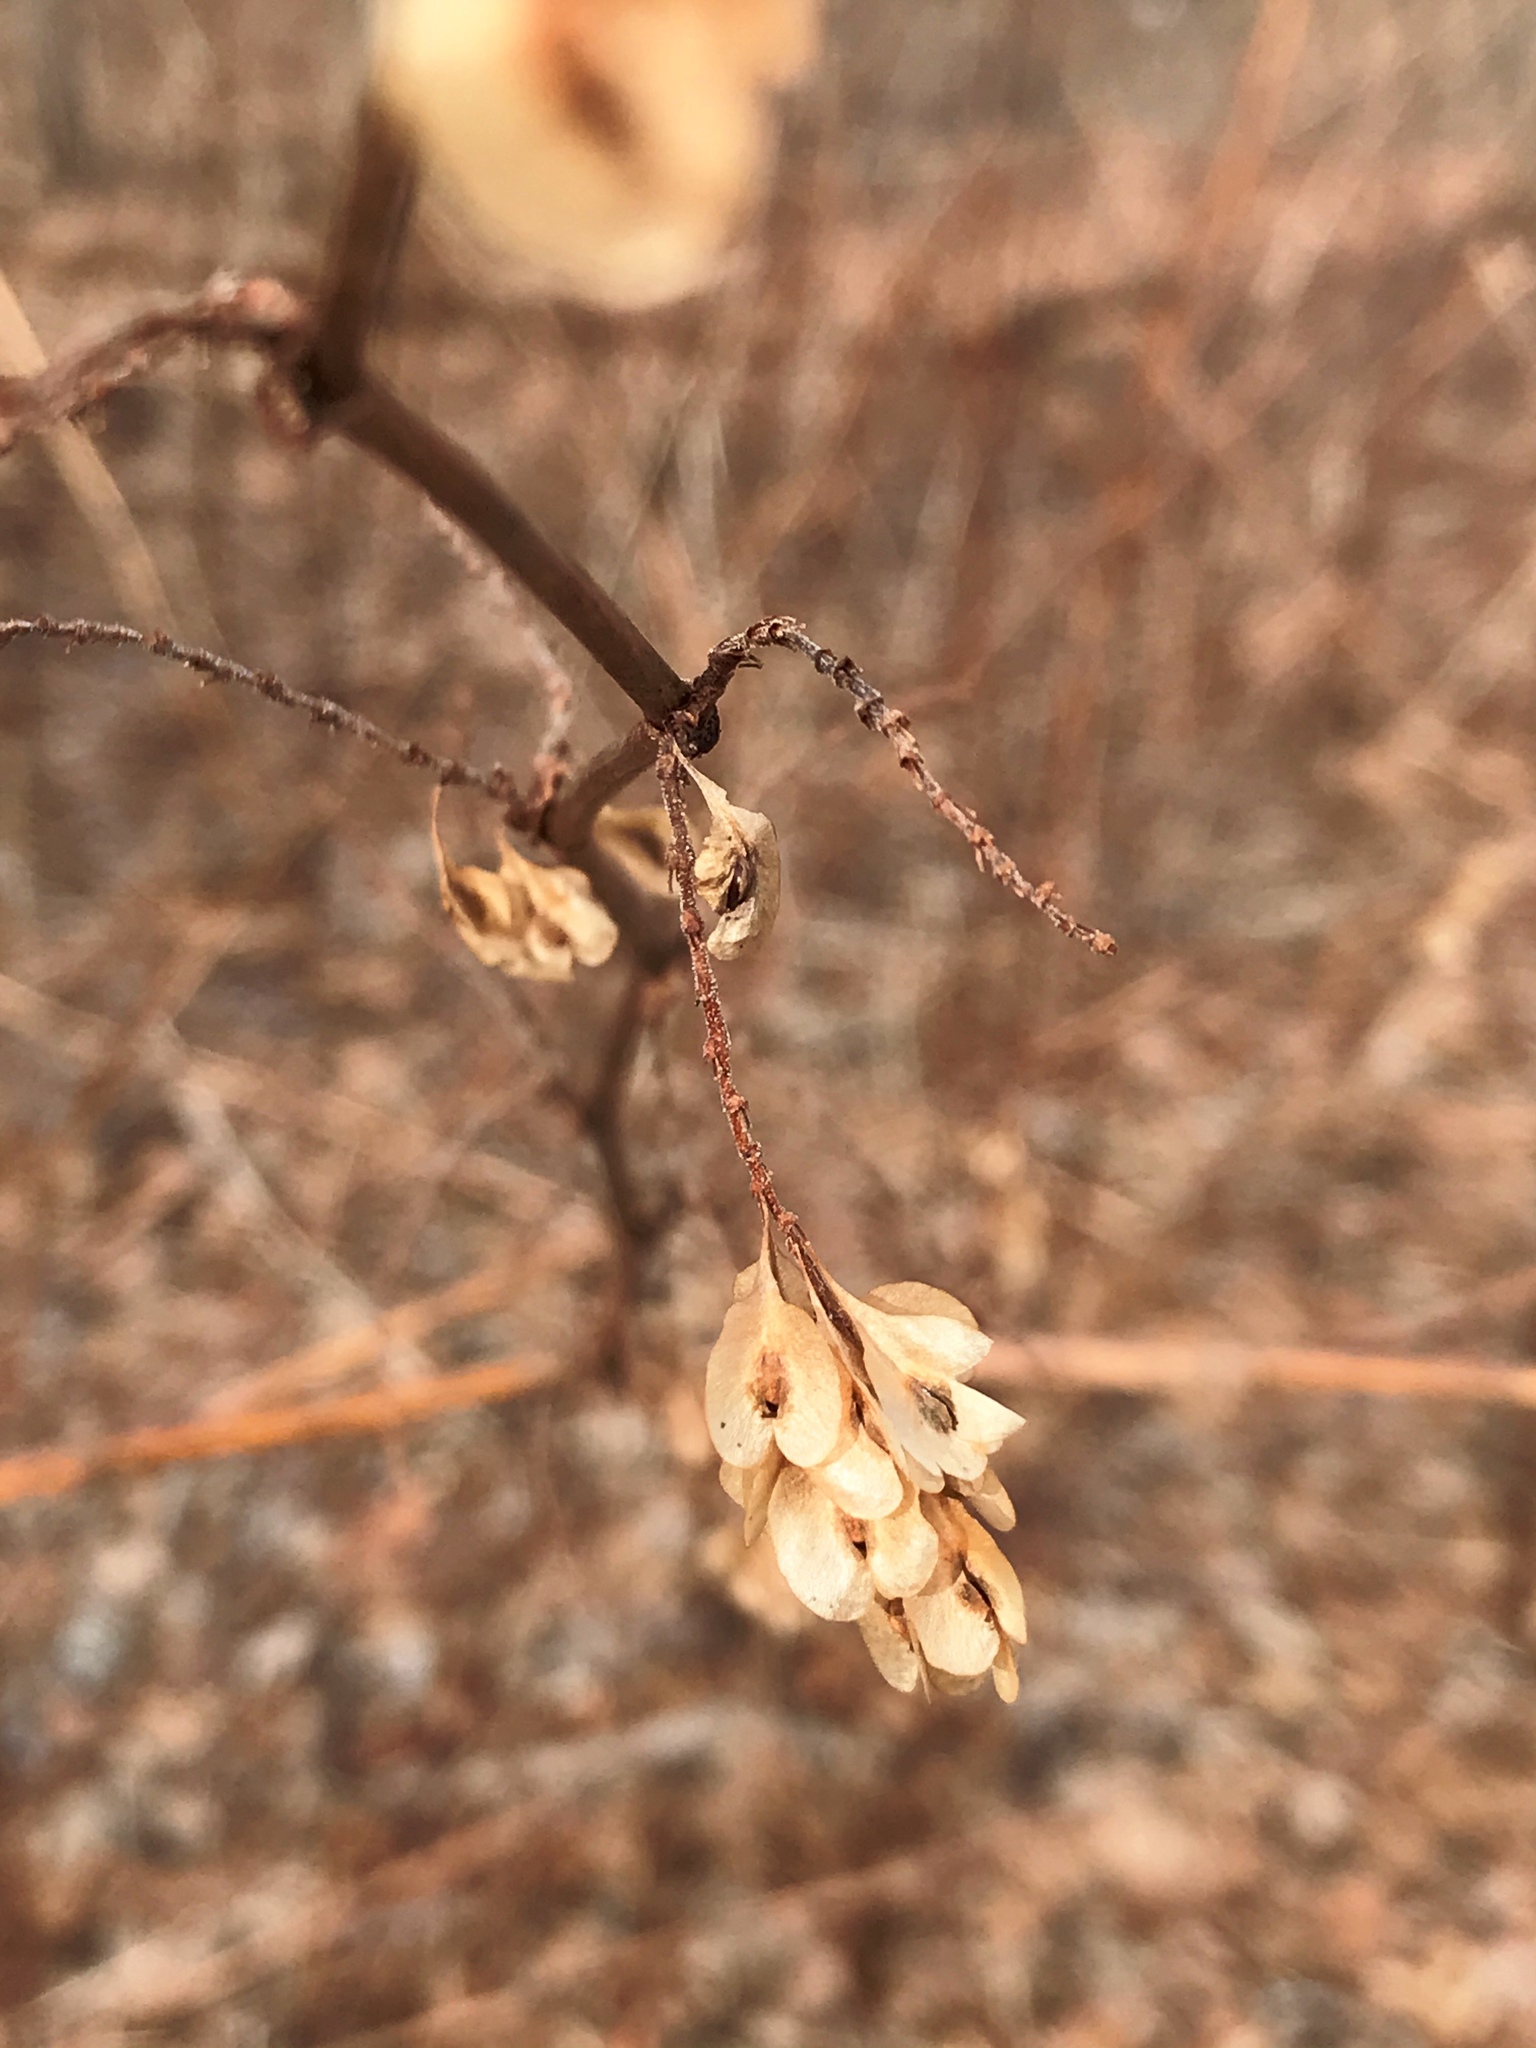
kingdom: Plantae
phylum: Tracheophyta
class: Magnoliopsida
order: Caryophyllales
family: Polygonaceae
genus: Reynoutria
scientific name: Reynoutria japonica
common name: Japanese knotweed
